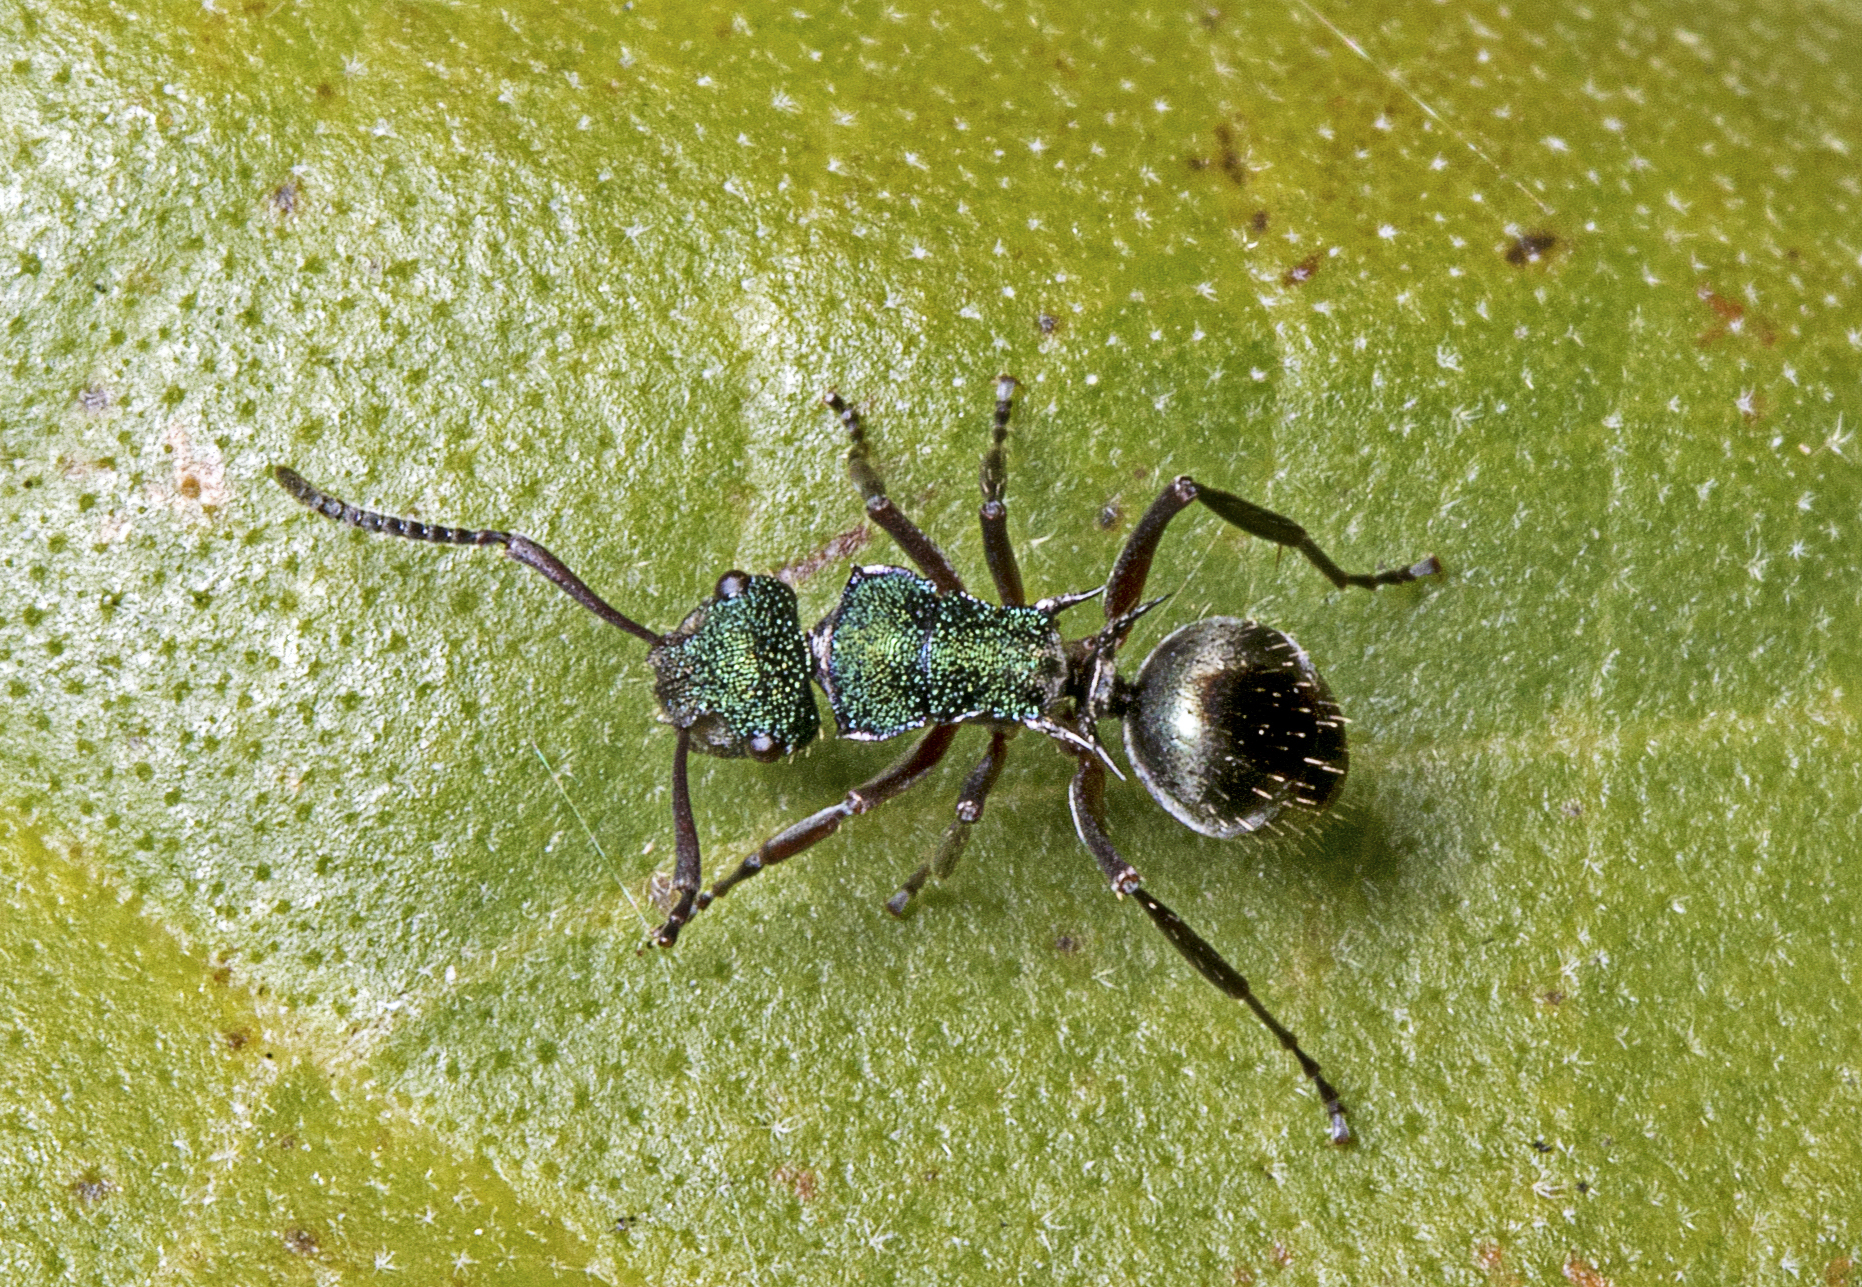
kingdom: Animalia
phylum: Arthropoda
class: Insecta
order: Hymenoptera
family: Formicidae
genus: Polyrhachis
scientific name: Polyrhachis hookeri
